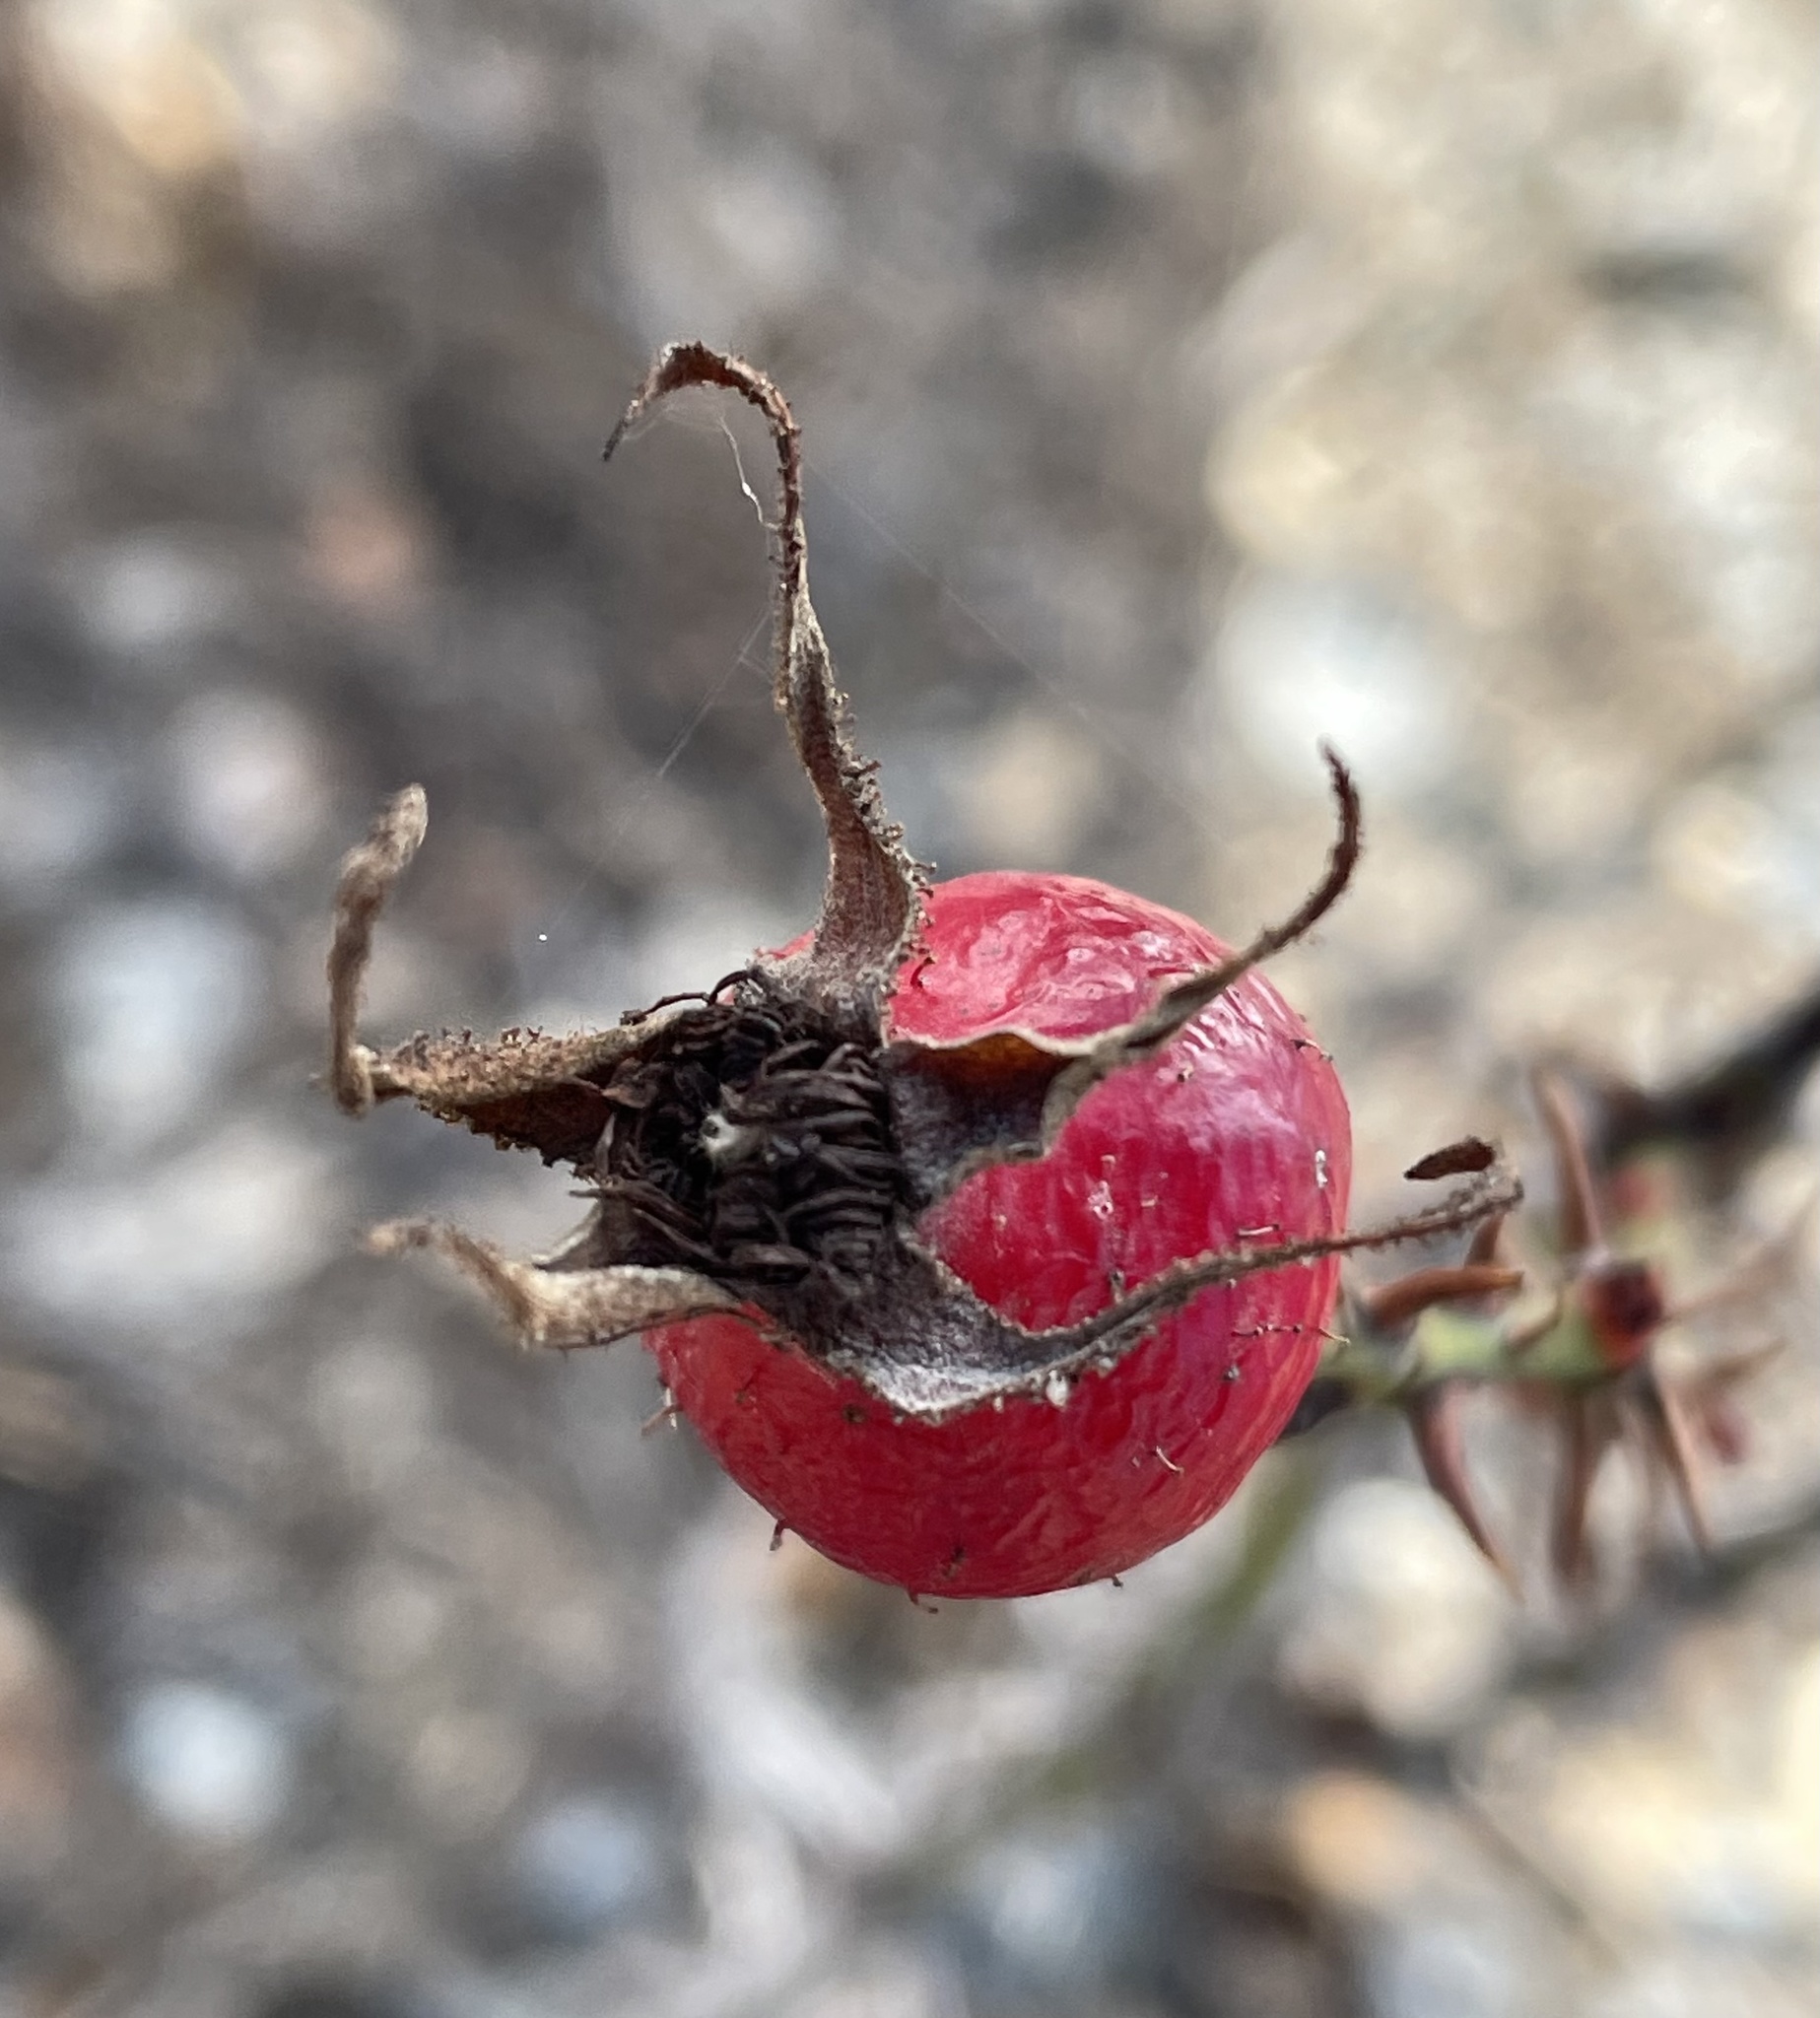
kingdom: Plantae
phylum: Tracheophyta
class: Magnoliopsida
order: Rosales
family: Rosaceae
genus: Rosa
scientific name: Rosa californica
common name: California rose
